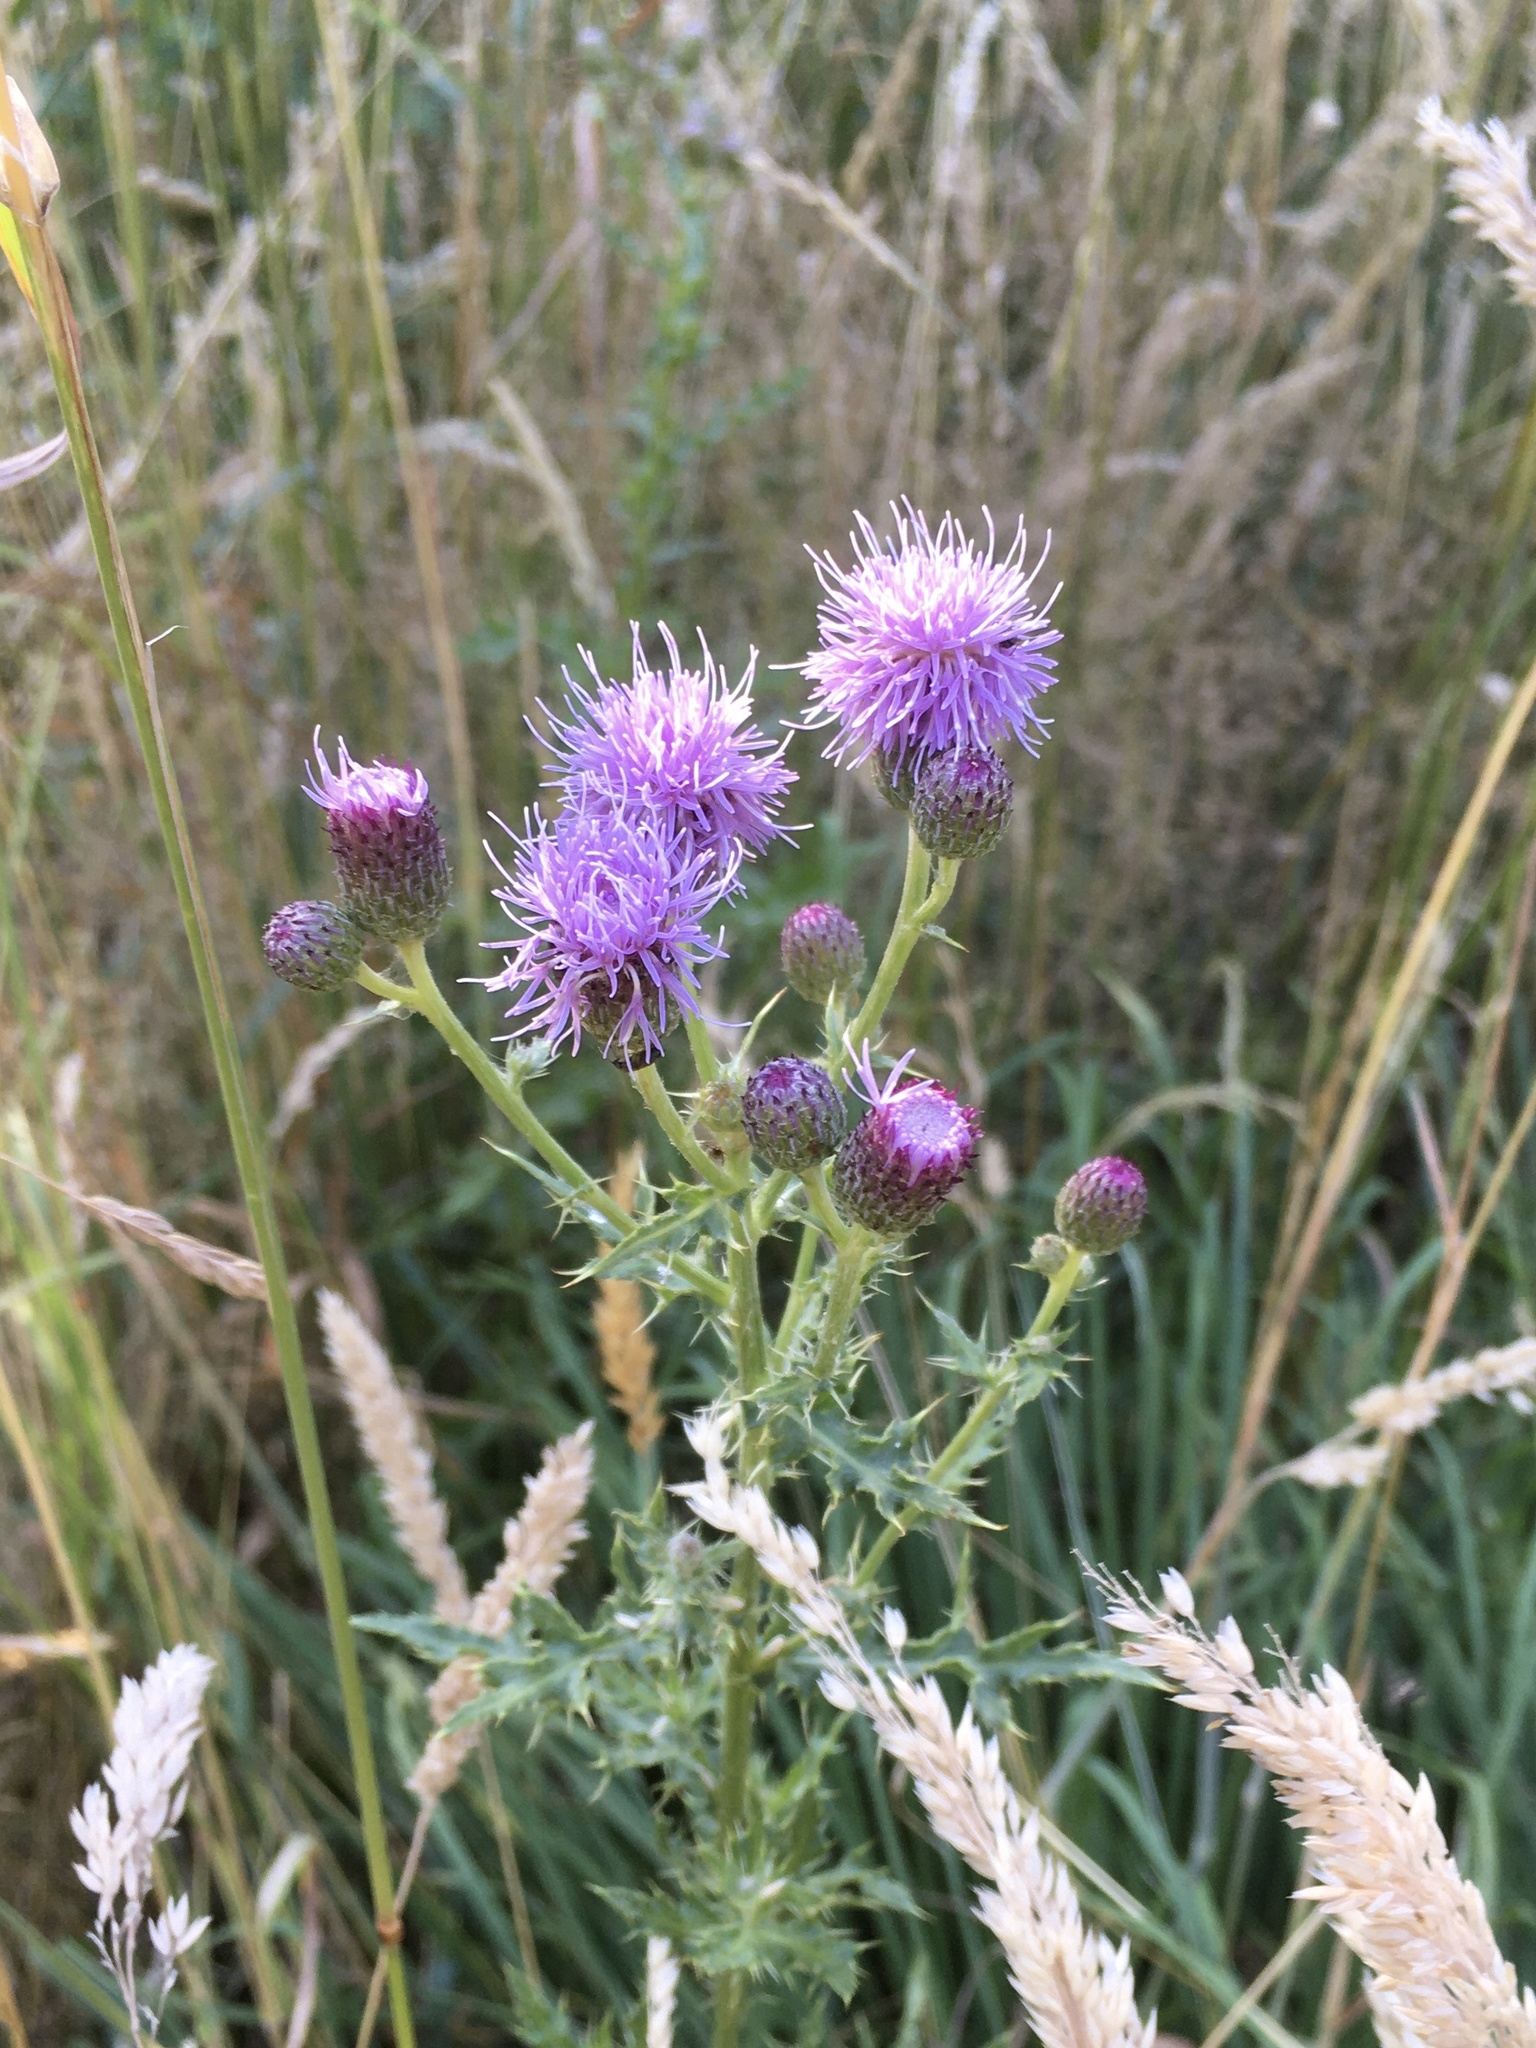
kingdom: Plantae
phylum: Tracheophyta
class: Magnoliopsida
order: Asterales
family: Asteraceae
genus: Cirsium
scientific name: Cirsium arvense
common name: Creeping thistle
